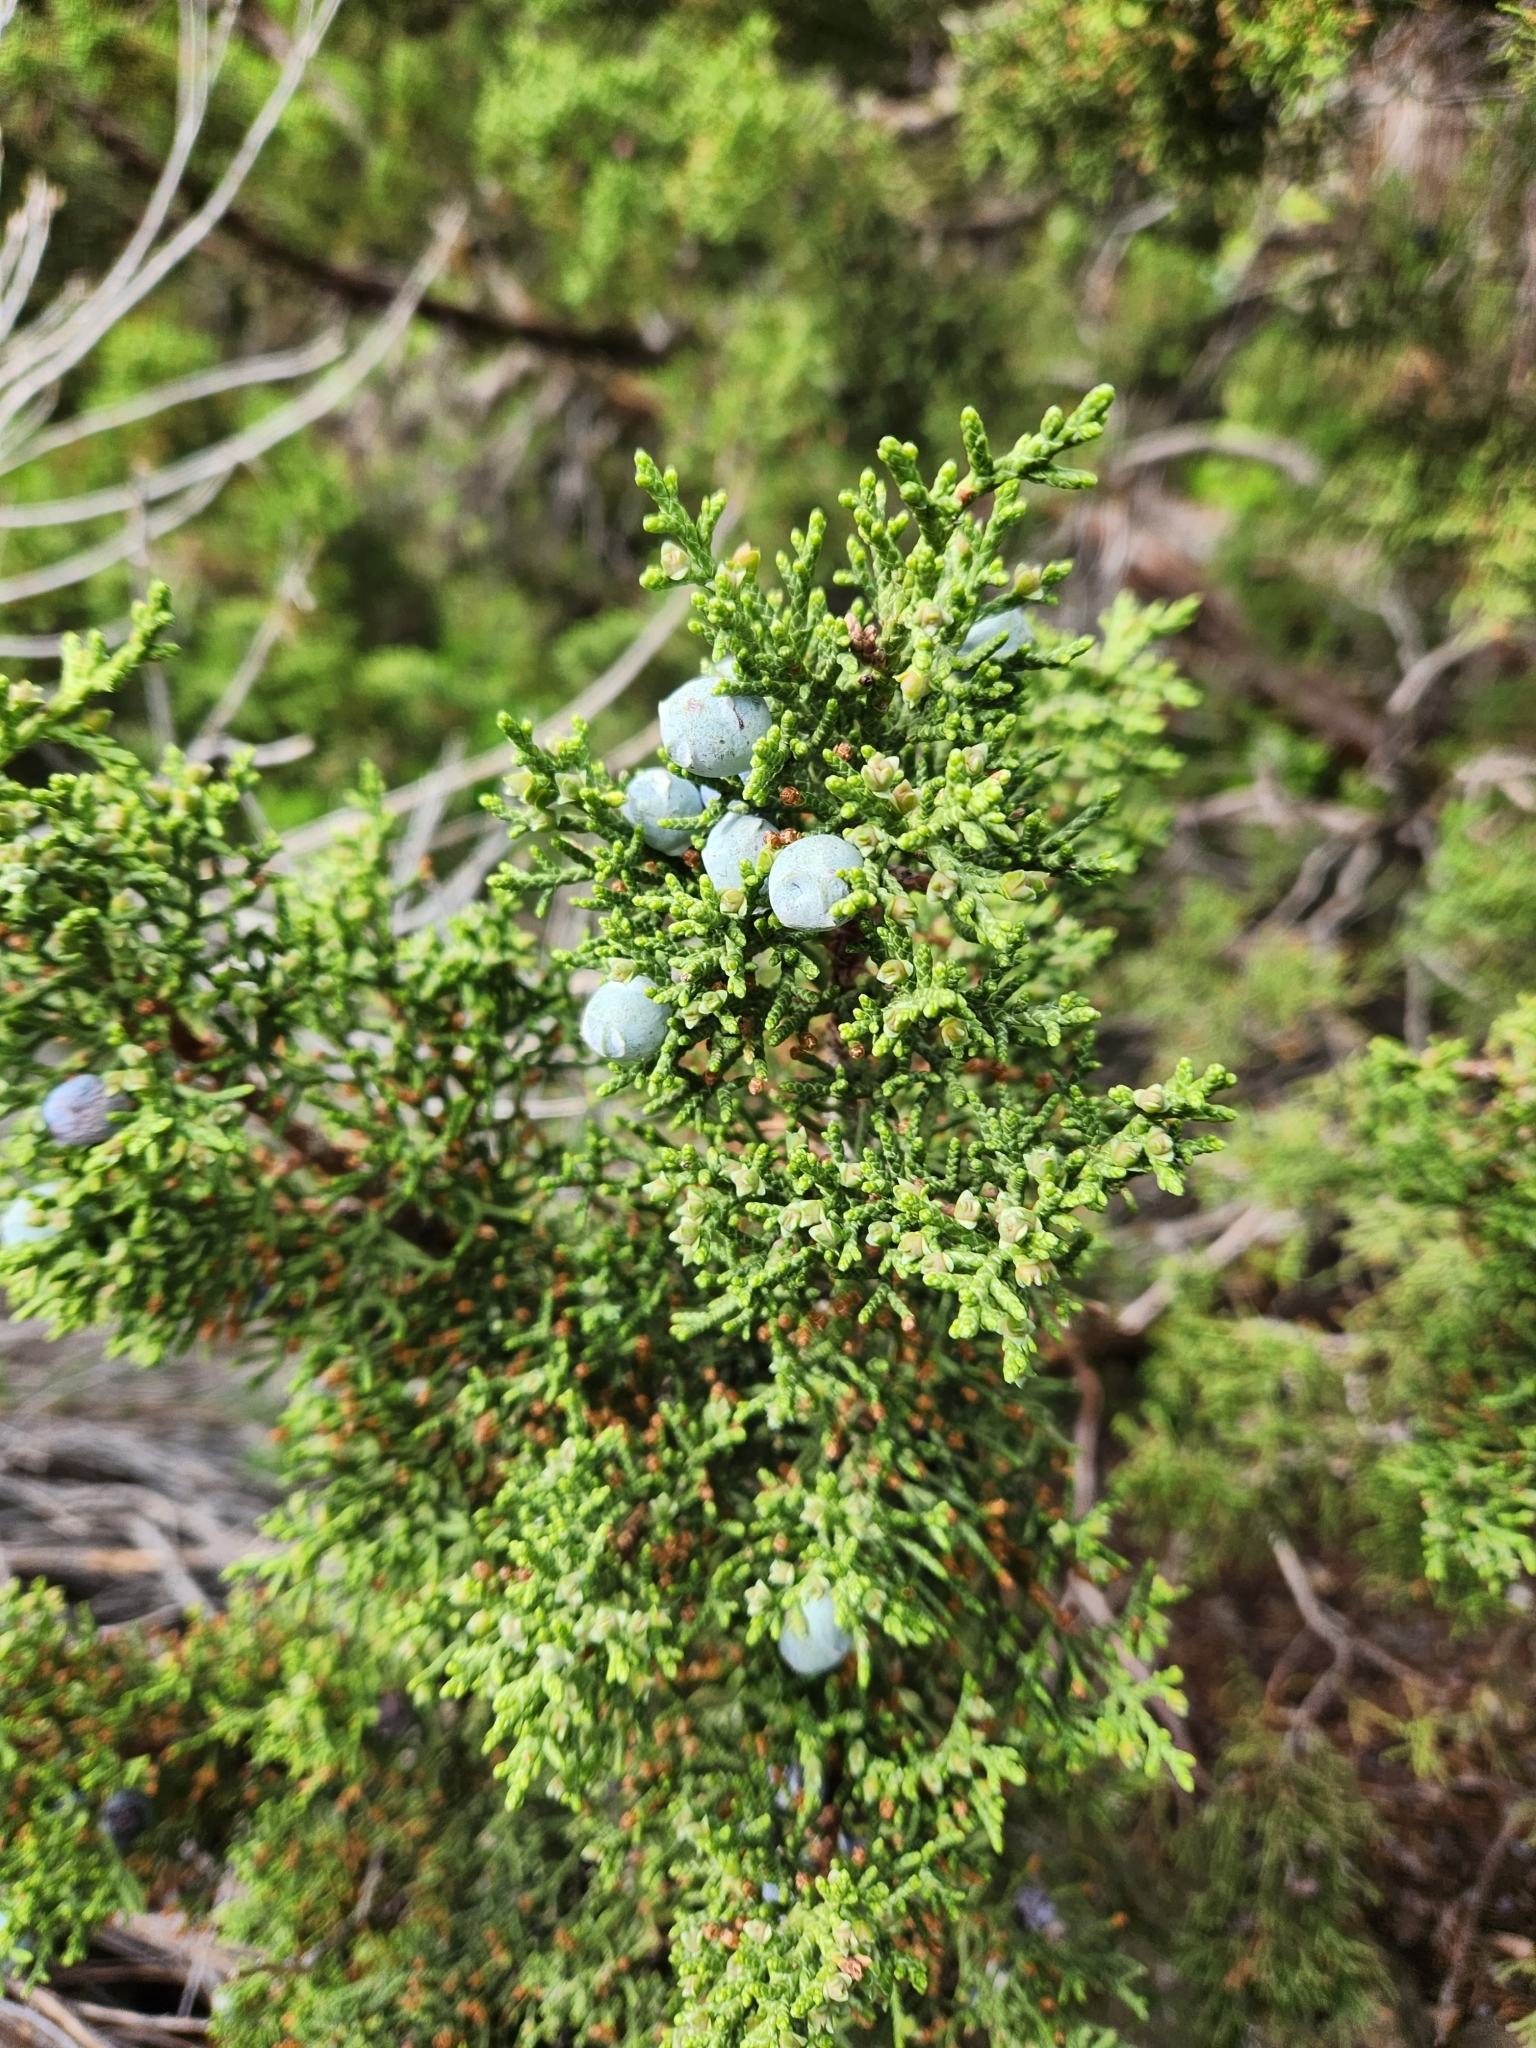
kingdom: Plantae
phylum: Tracheophyta
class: Pinopsida
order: Pinales
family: Cupressaceae
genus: Juniperus
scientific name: Juniperus osteosperma
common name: Utah juniper
